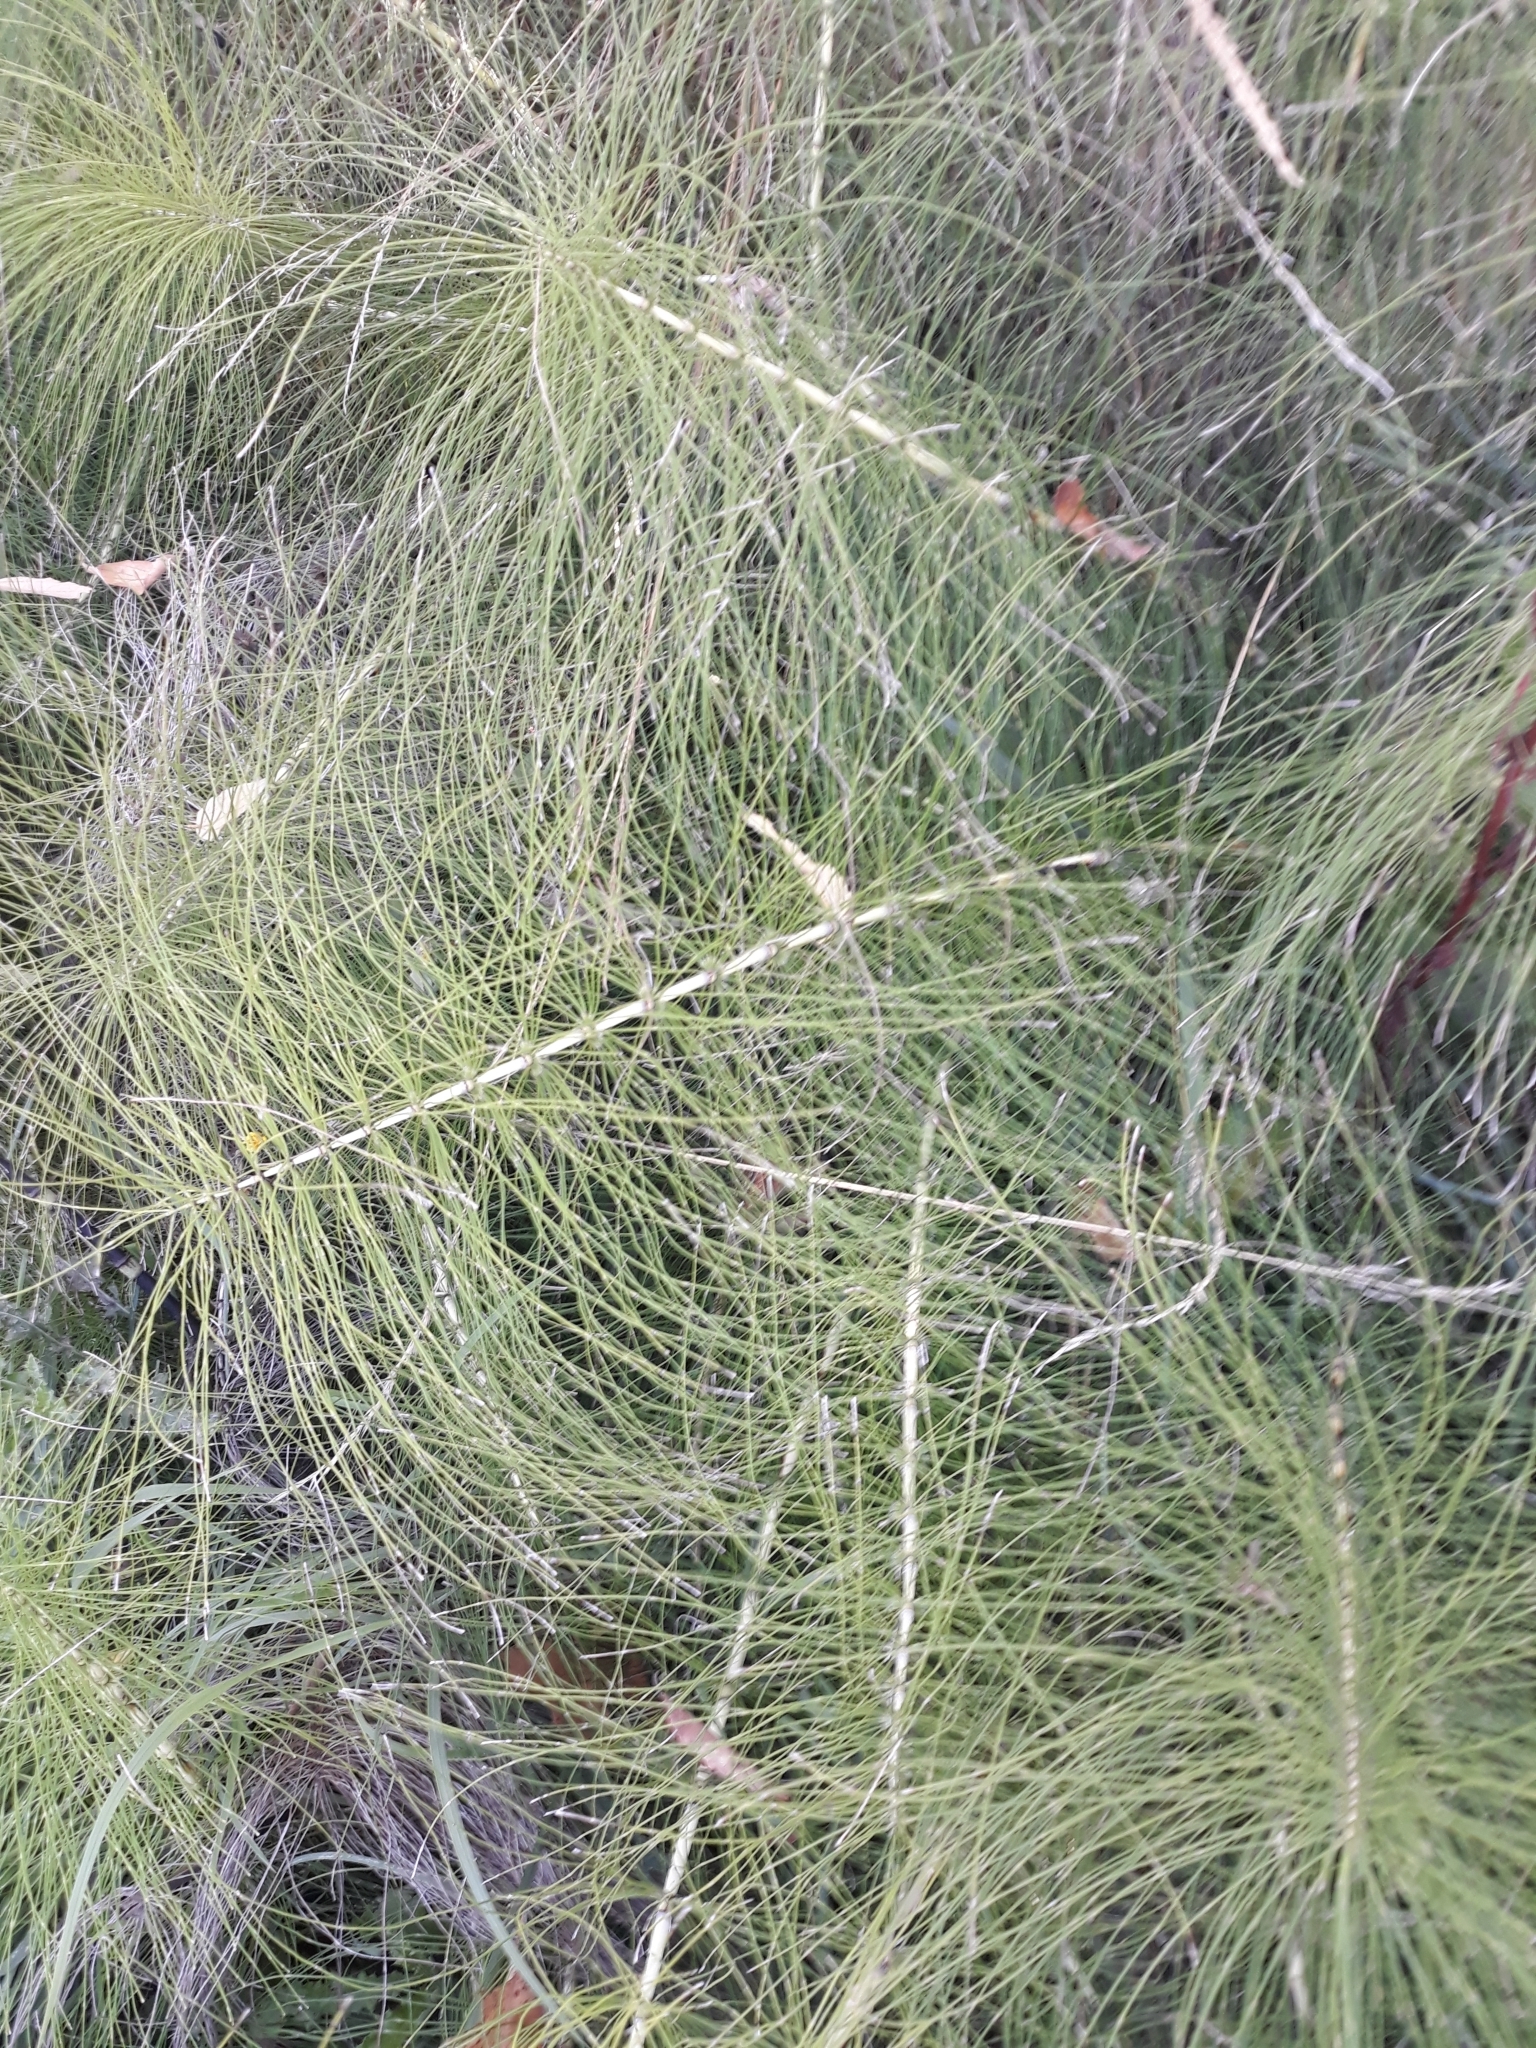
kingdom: Plantae
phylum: Tracheophyta
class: Polypodiopsida
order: Equisetales
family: Equisetaceae
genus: Equisetum
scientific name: Equisetum telmateia
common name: Great horsetail
